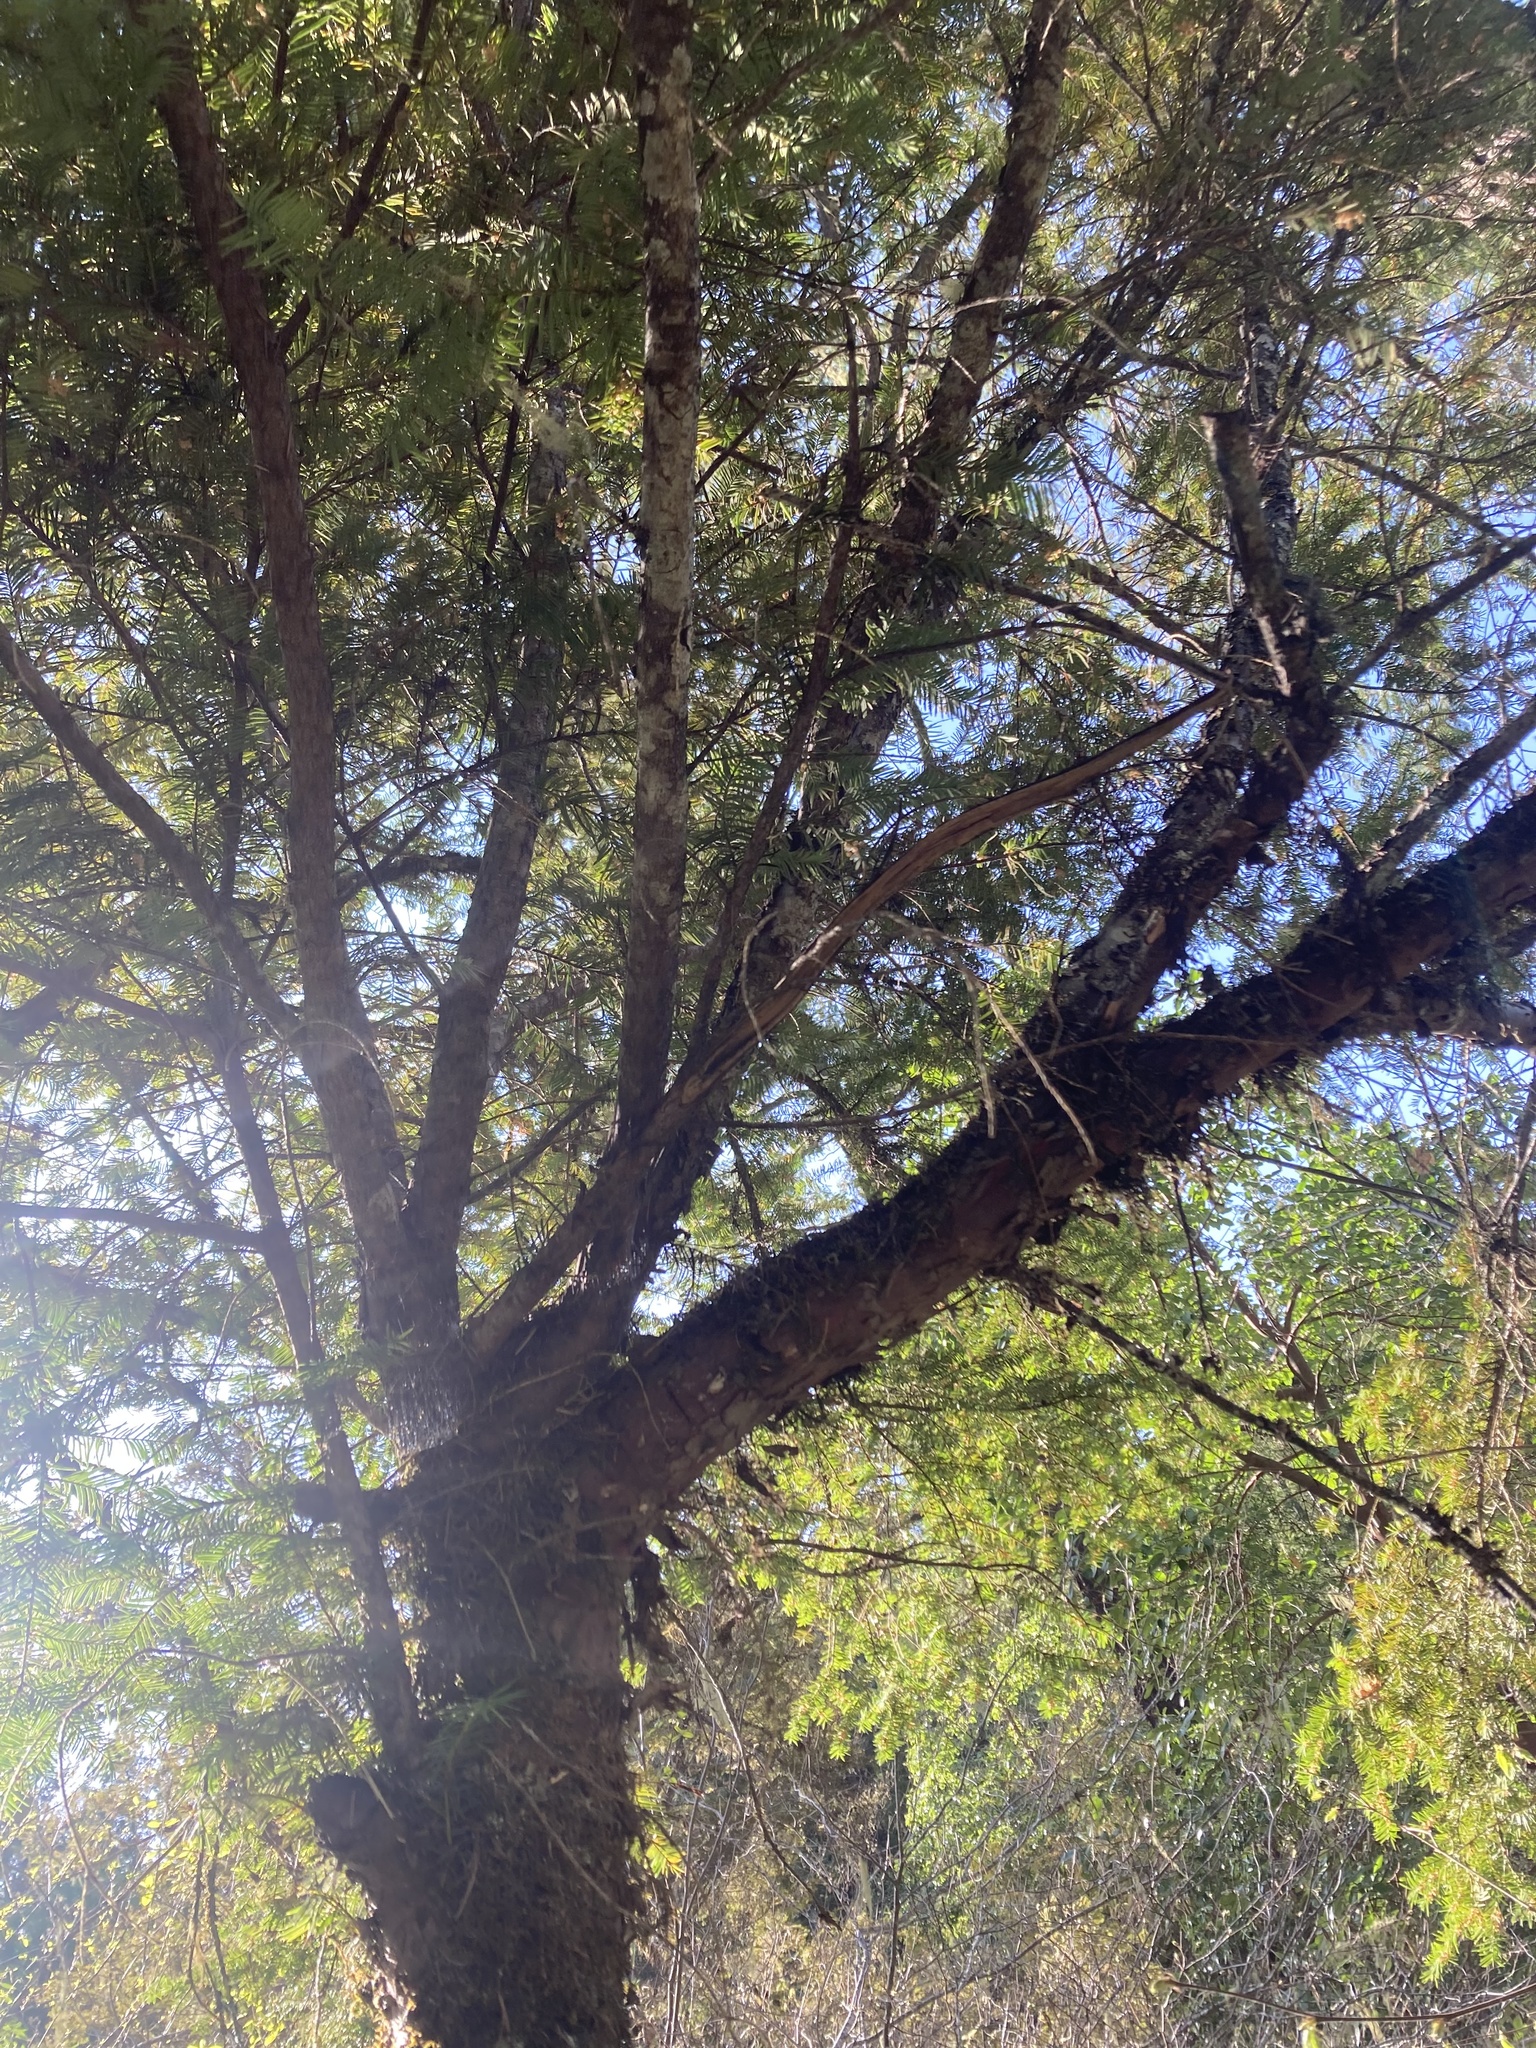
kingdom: Plantae
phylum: Tracheophyta
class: Pinopsida
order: Pinales
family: Taxaceae
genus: Taxus
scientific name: Taxus brevifolia
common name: Pacific yew
